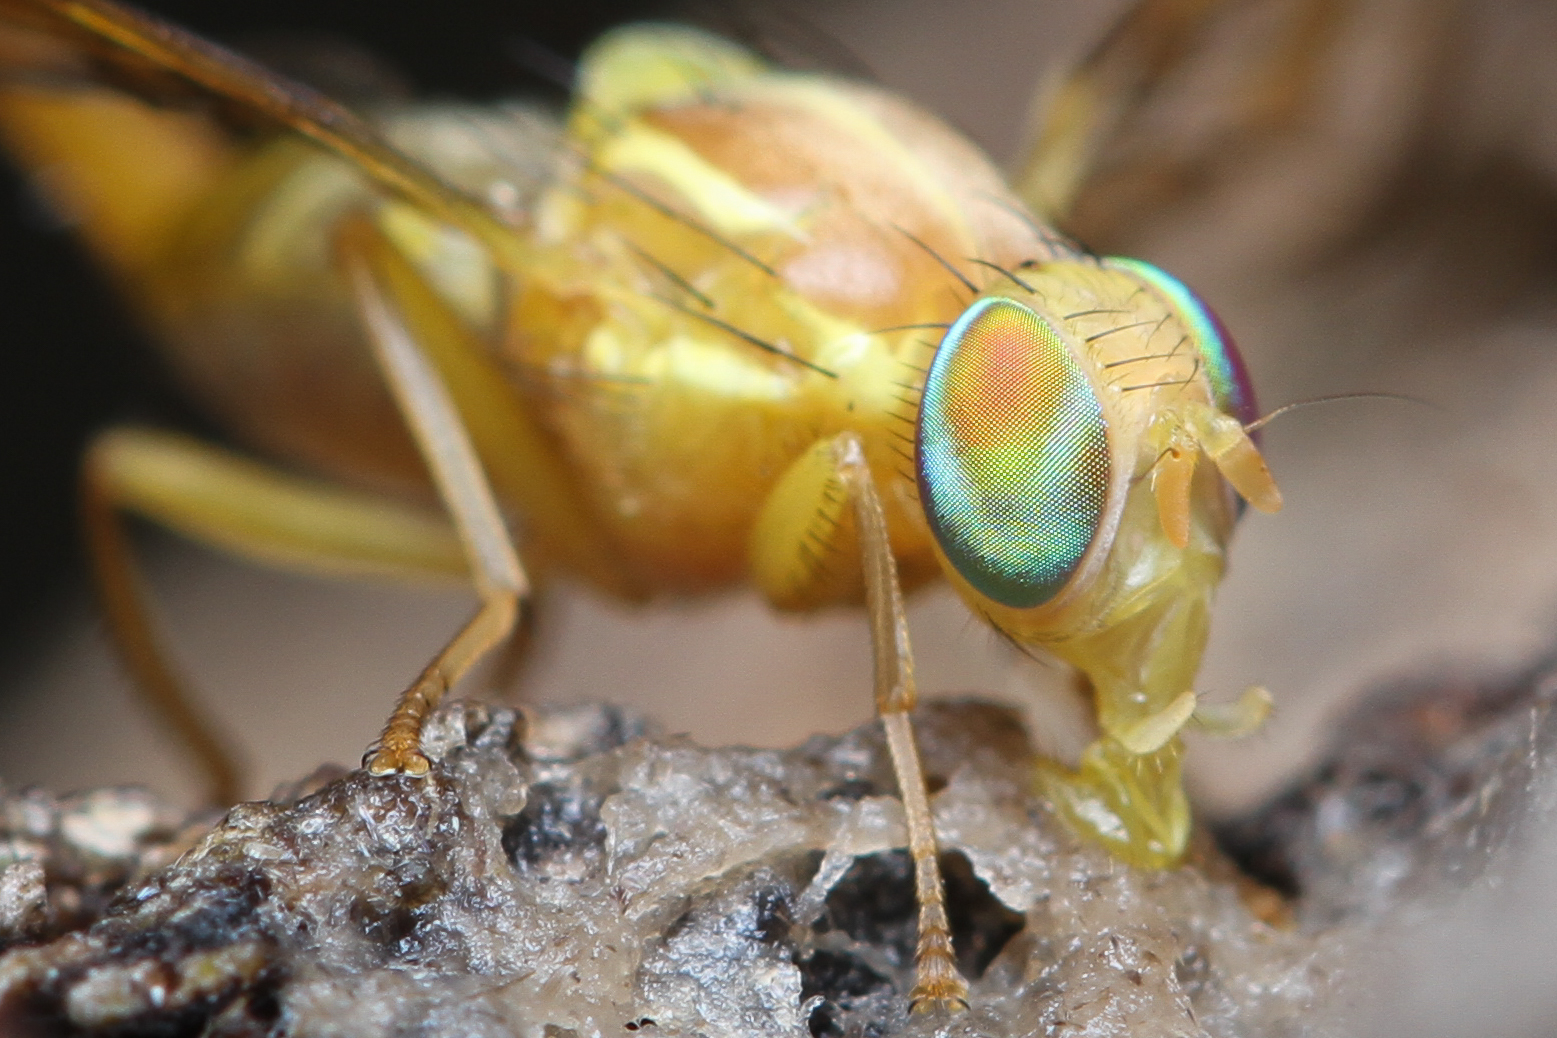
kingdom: Animalia
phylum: Arthropoda
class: Insecta
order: Diptera
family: Tephritidae
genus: Anastrepha
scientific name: Anastrepha ludens
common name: Mexican fruit fly
